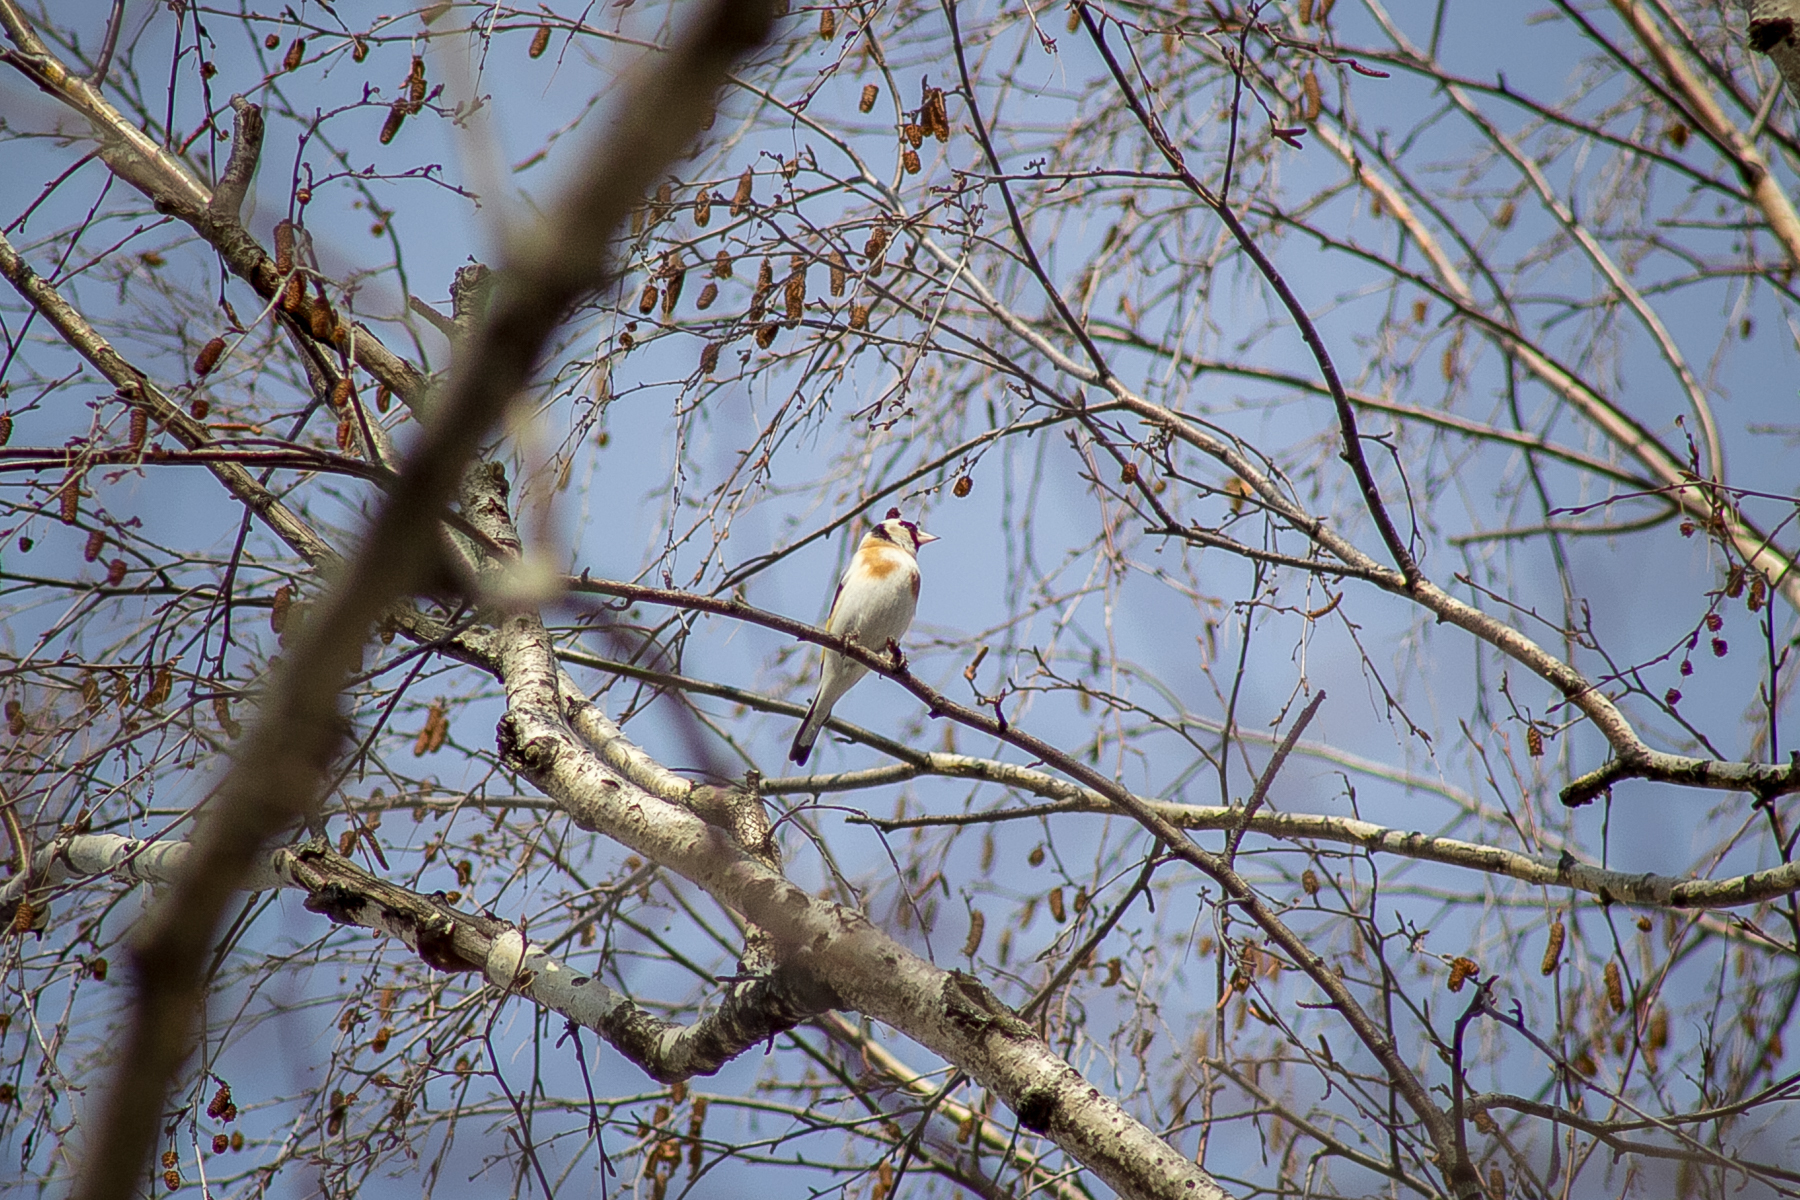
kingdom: Animalia
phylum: Chordata
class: Aves
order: Passeriformes
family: Fringillidae
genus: Carduelis
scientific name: Carduelis carduelis
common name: European goldfinch
